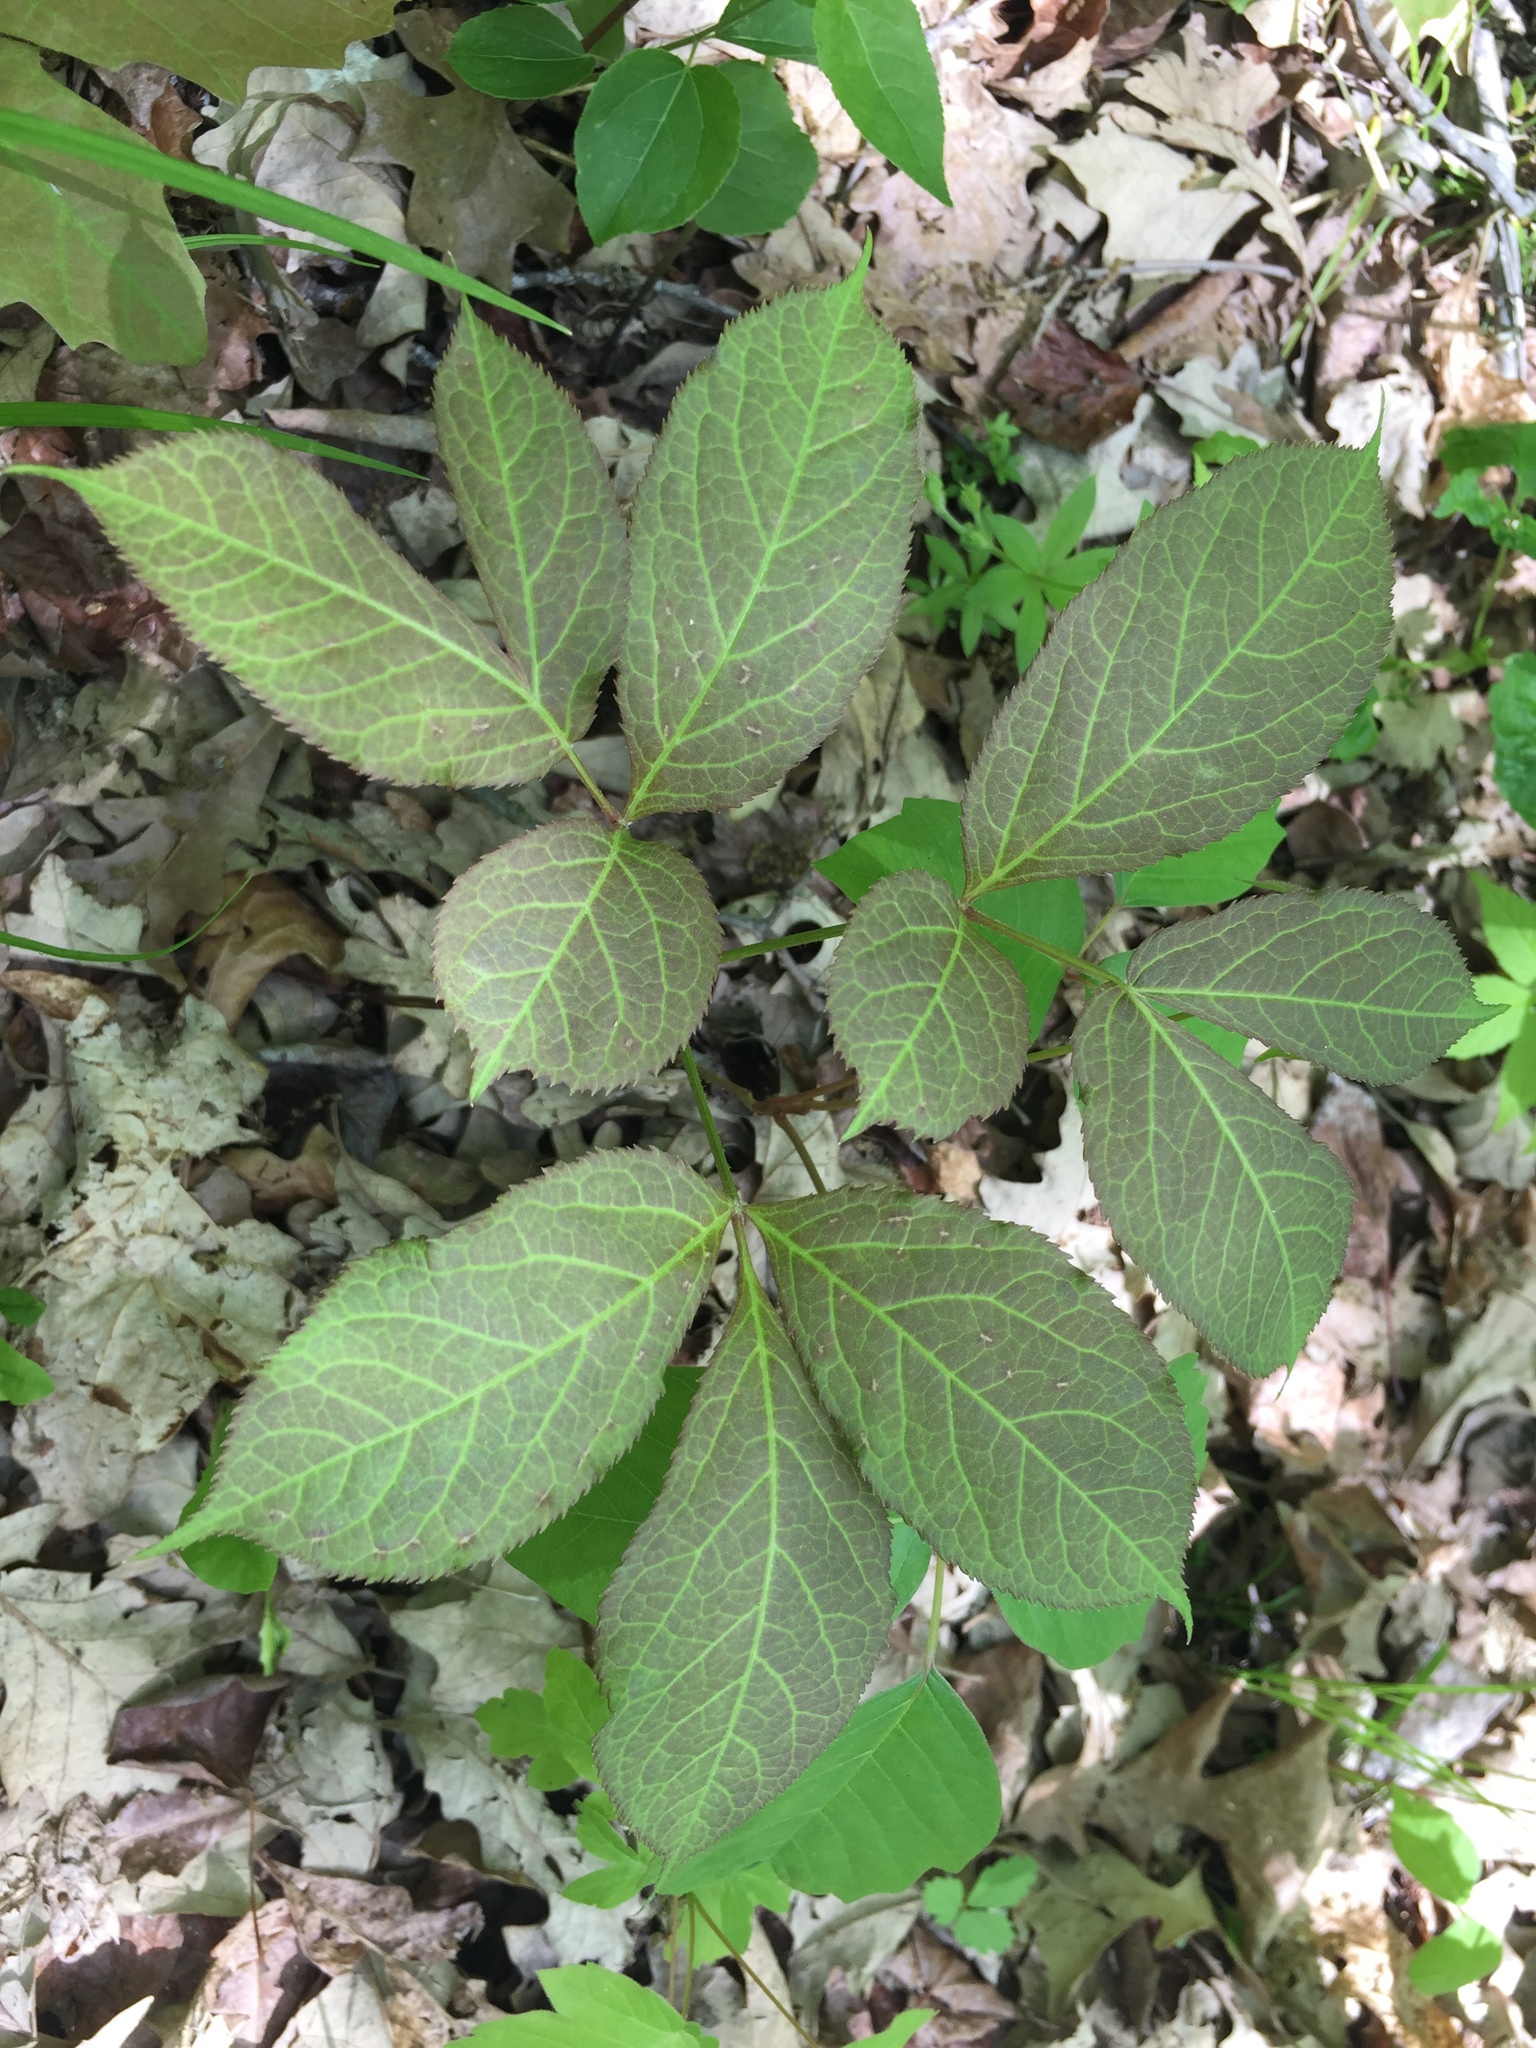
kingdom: Plantae
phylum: Tracheophyta
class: Magnoliopsida
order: Apiales
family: Araliaceae
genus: Aralia
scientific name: Aralia nudicaulis
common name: Wild sarsaparilla
